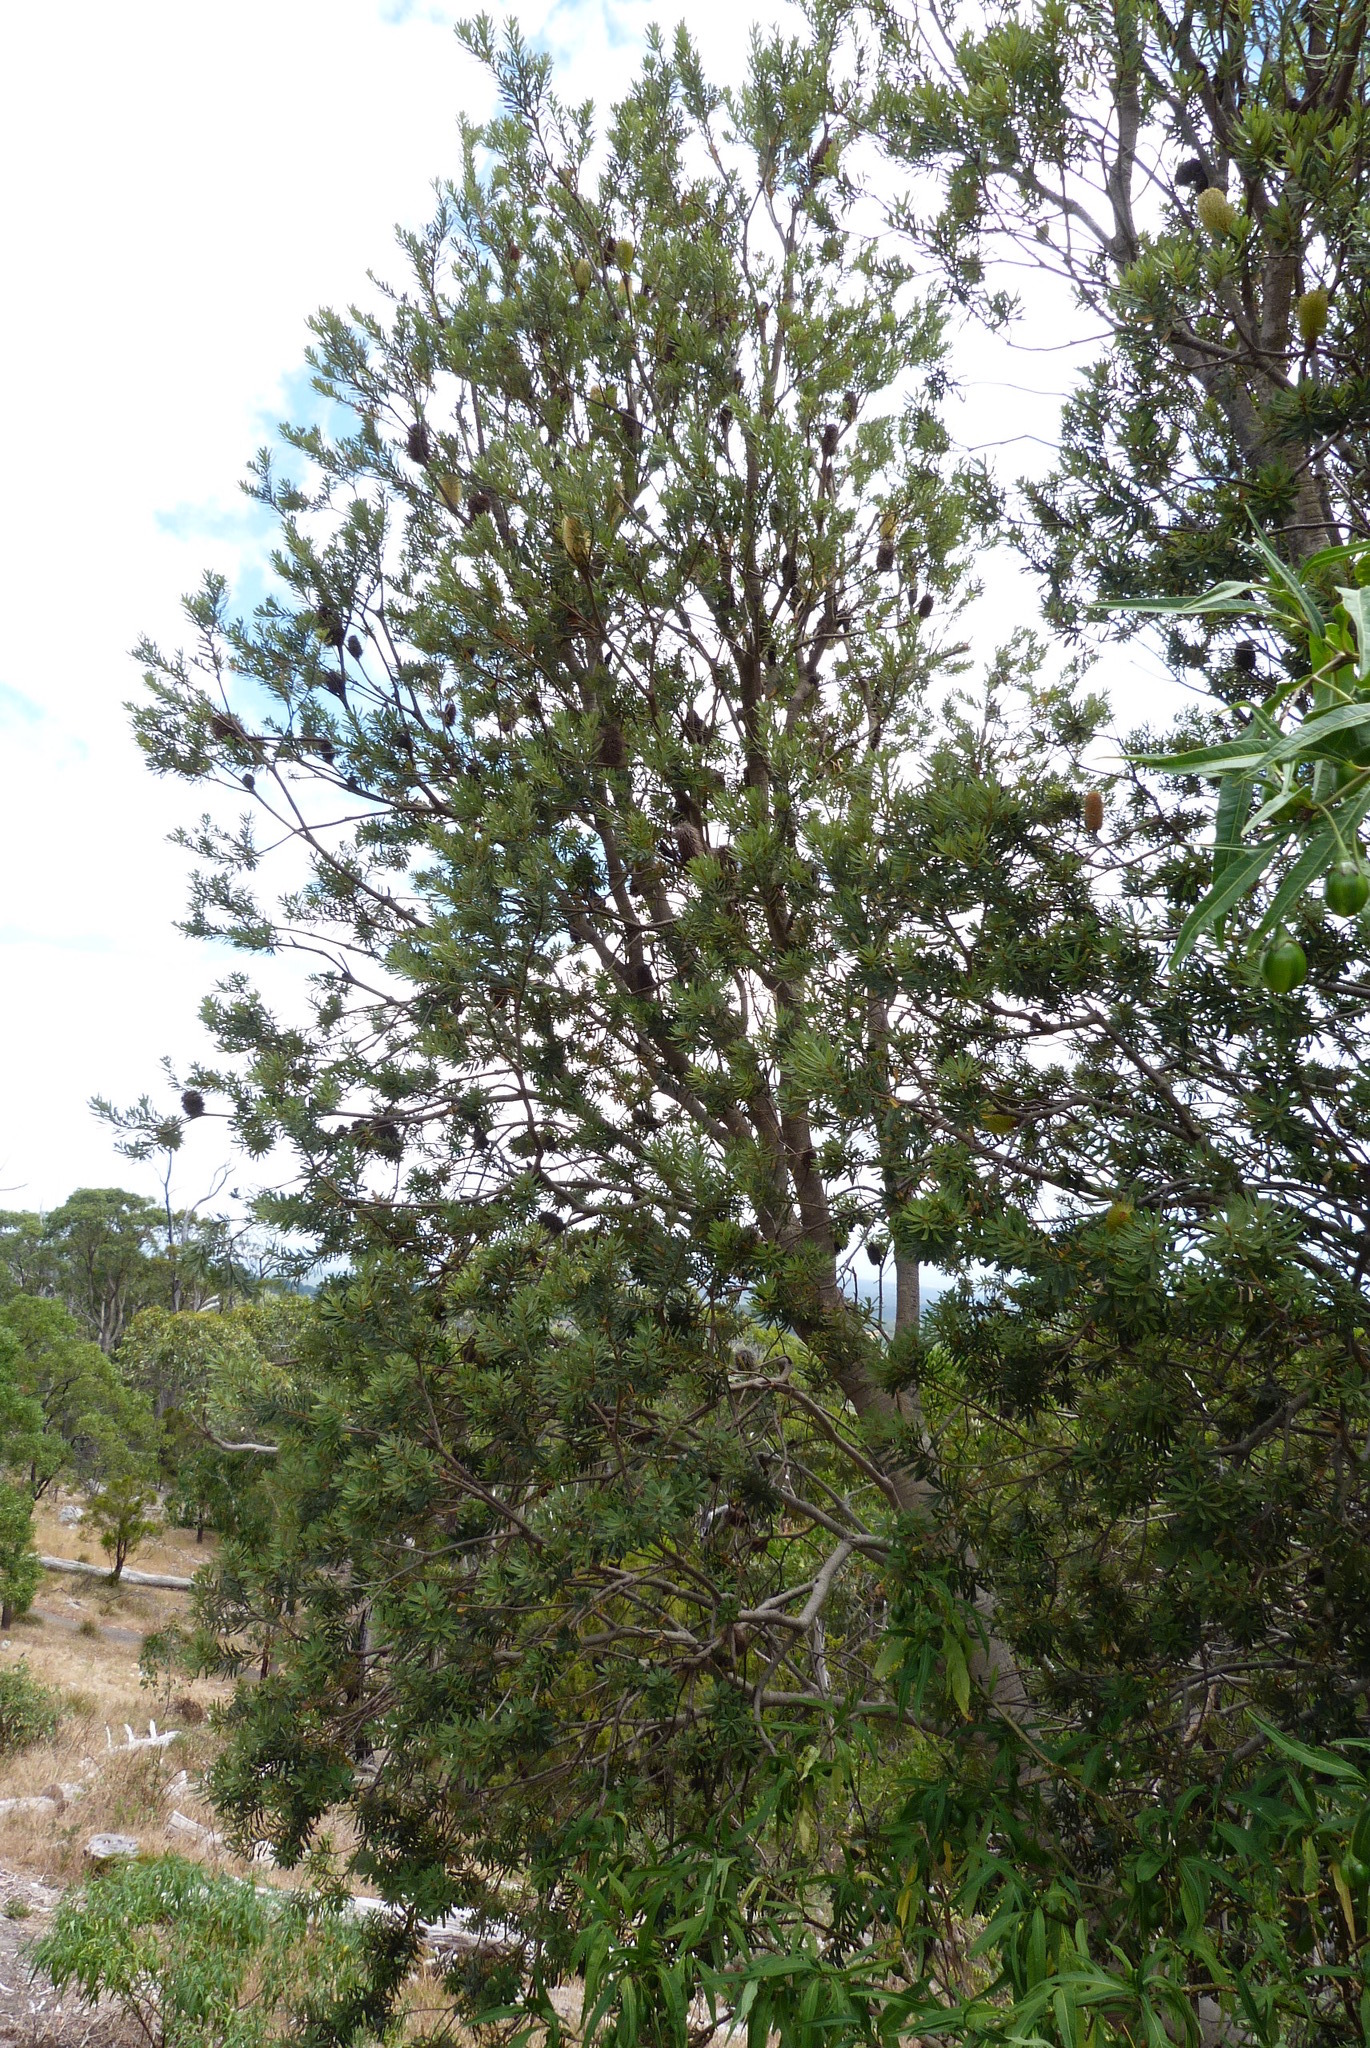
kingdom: Plantae
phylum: Tracheophyta
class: Magnoliopsida
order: Proteales
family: Proteaceae
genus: Banksia
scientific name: Banksia marginata
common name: Silver banksia
